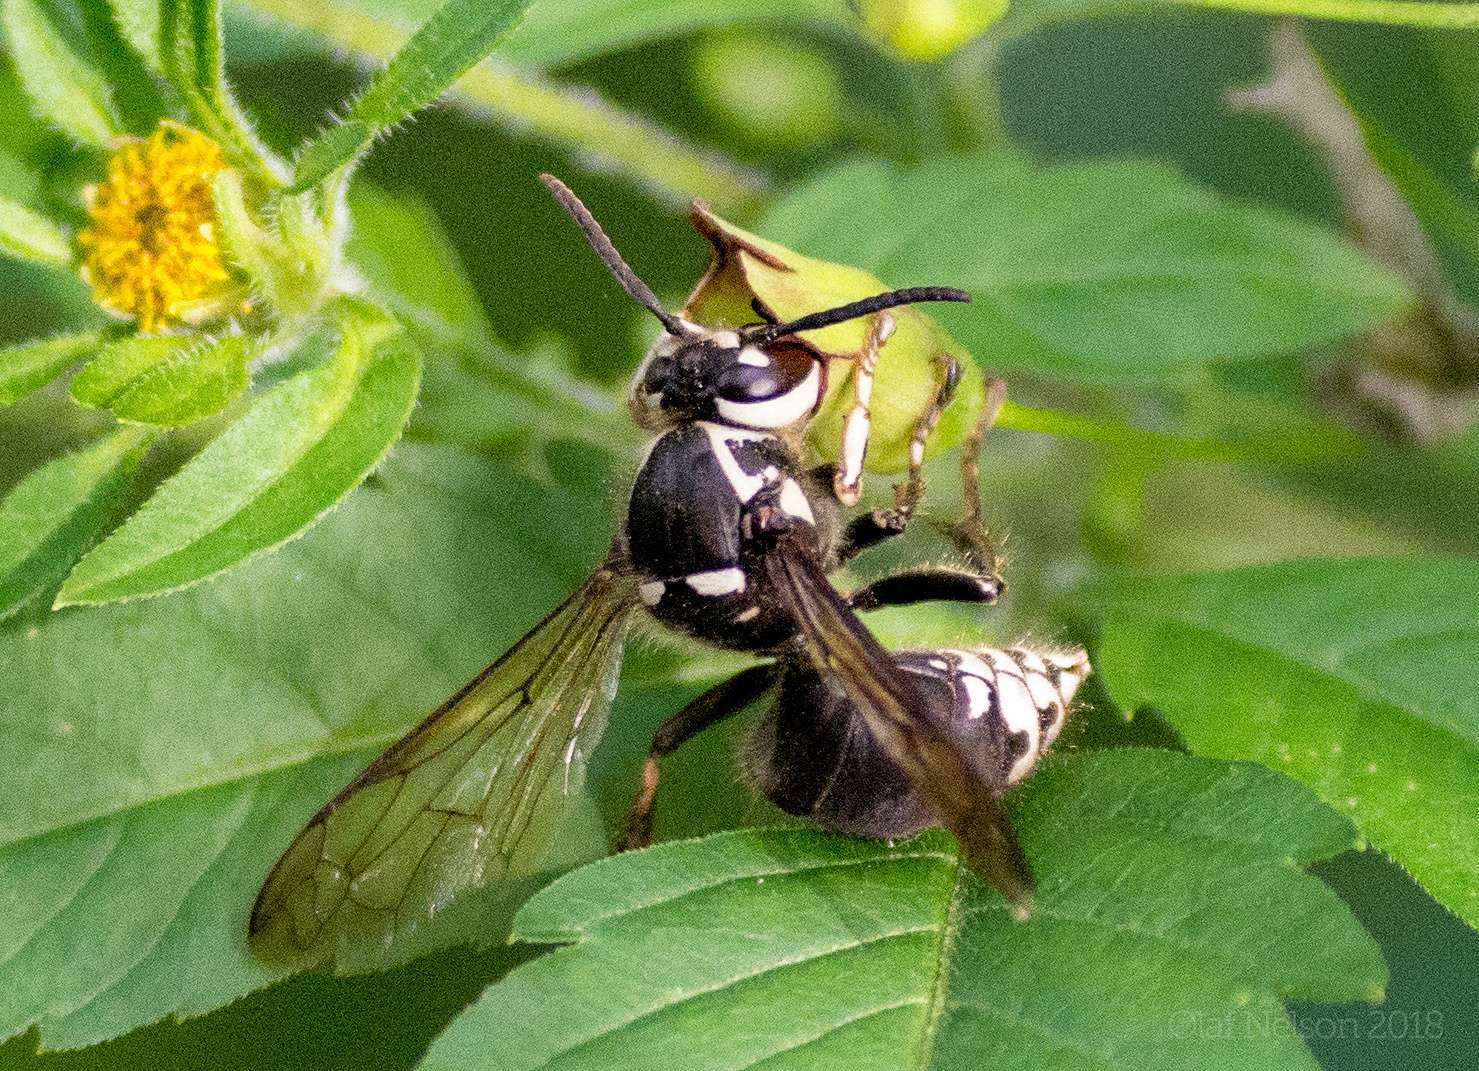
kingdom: Animalia
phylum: Arthropoda
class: Insecta
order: Hymenoptera
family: Vespidae
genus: Dolichovespula
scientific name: Dolichovespula maculata
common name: Bald-faced hornet
